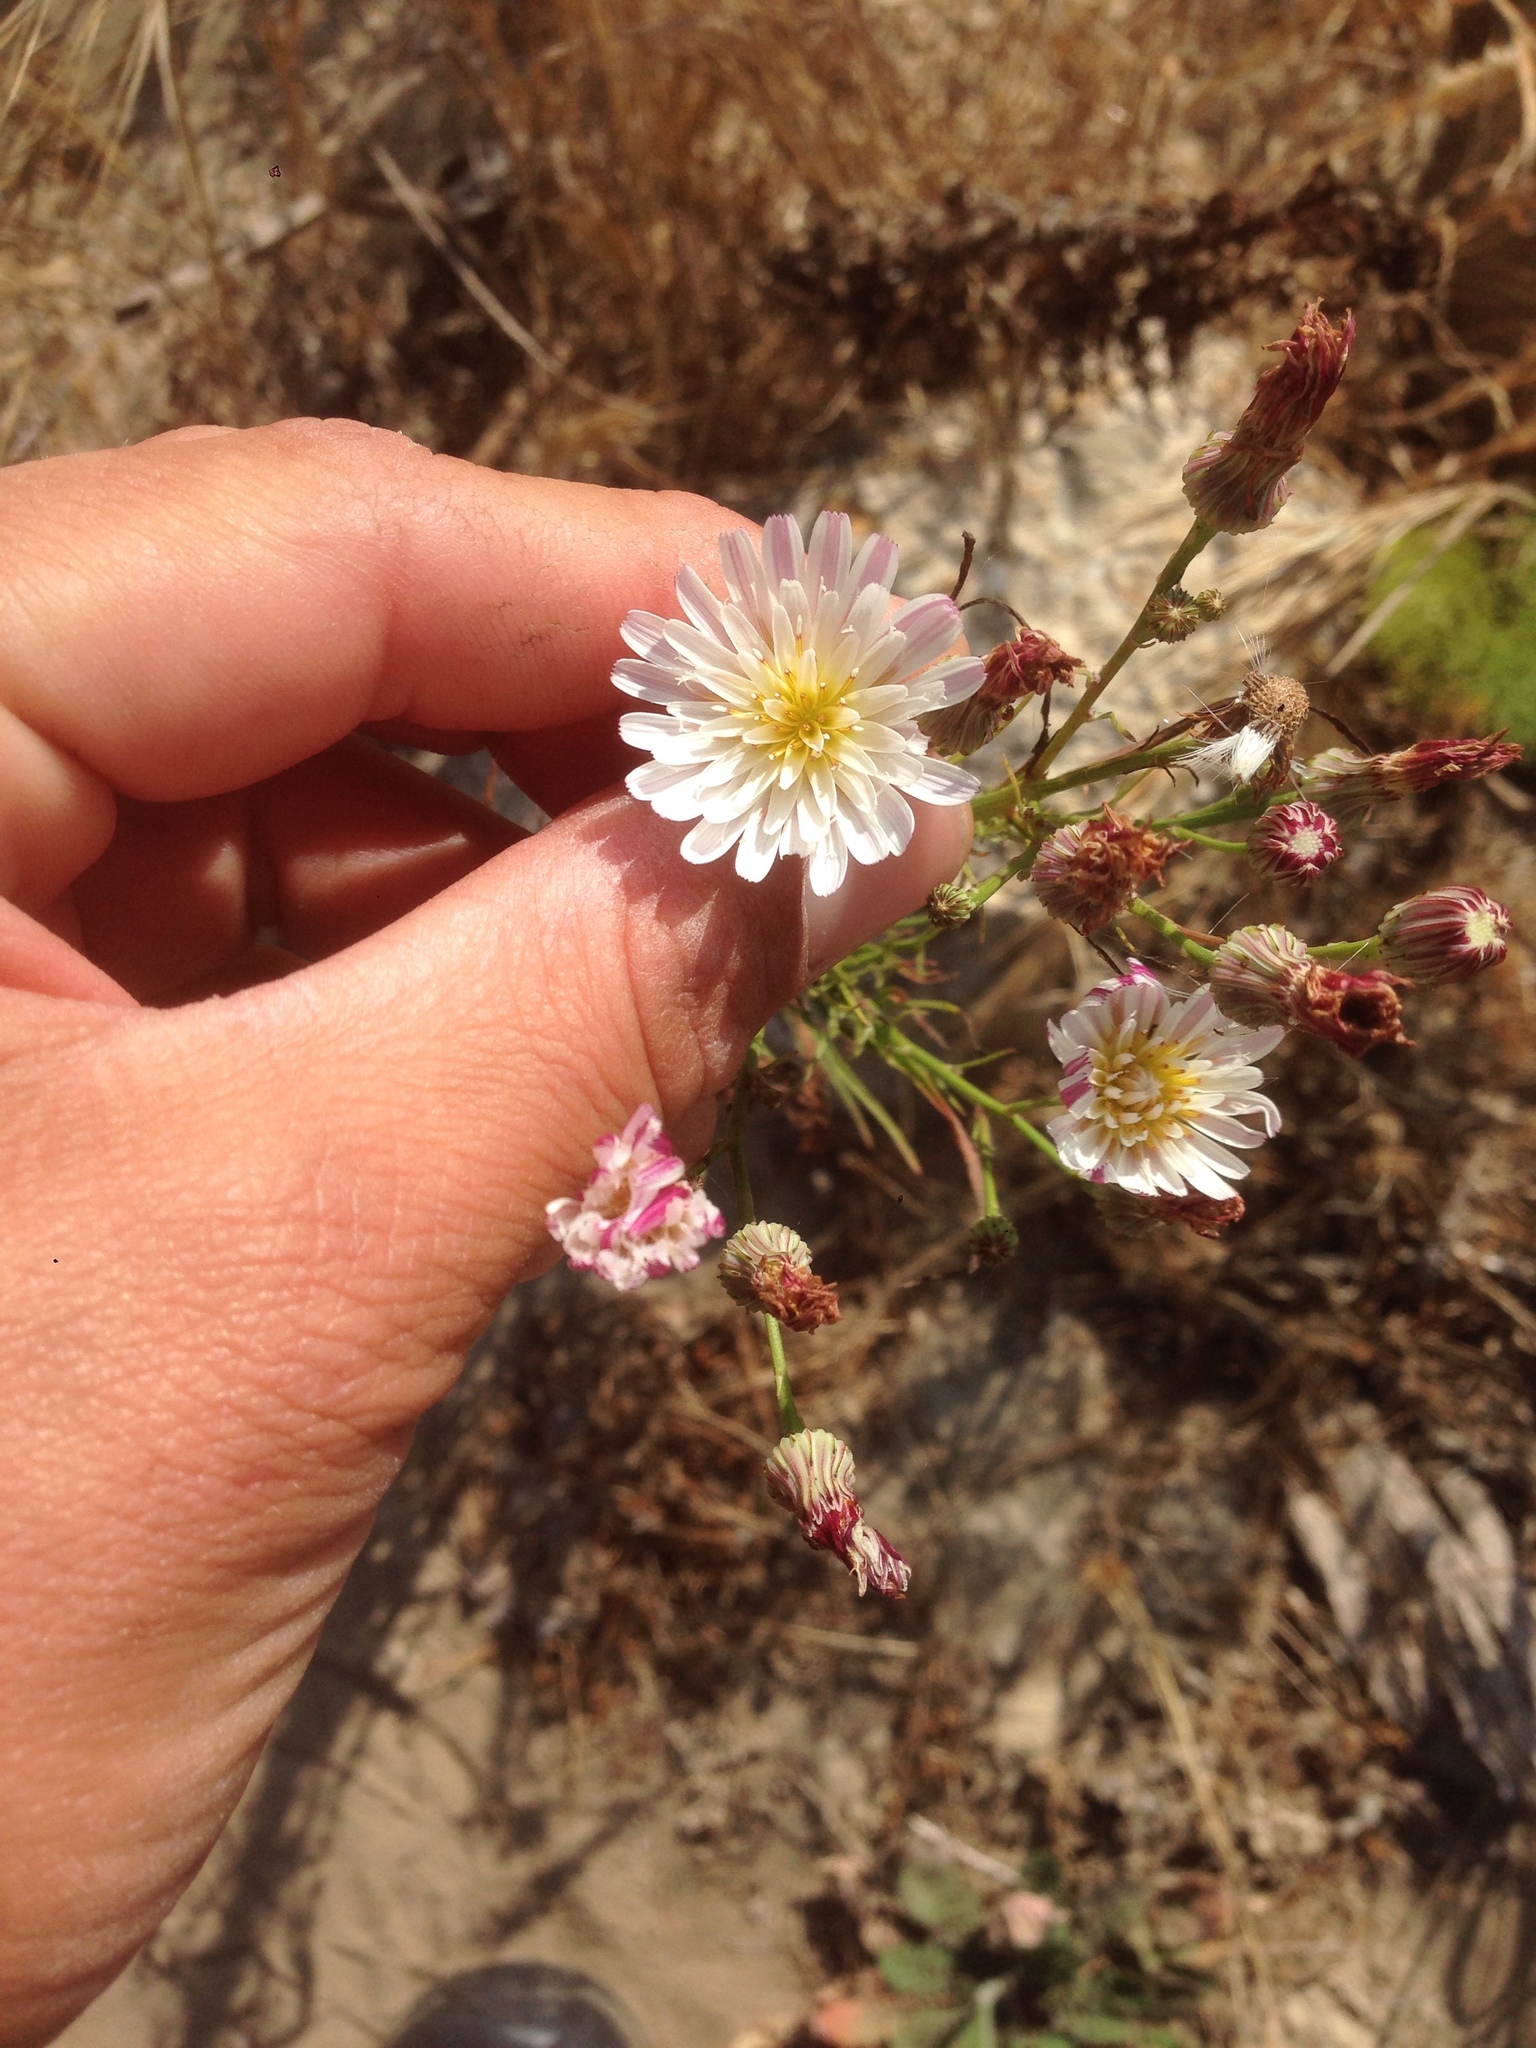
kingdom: Plantae
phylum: Tracheophyta
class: Magnoliopsida
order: Asterales
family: Asteraceae
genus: Malacothrix
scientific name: Malacothrix saxatilis
